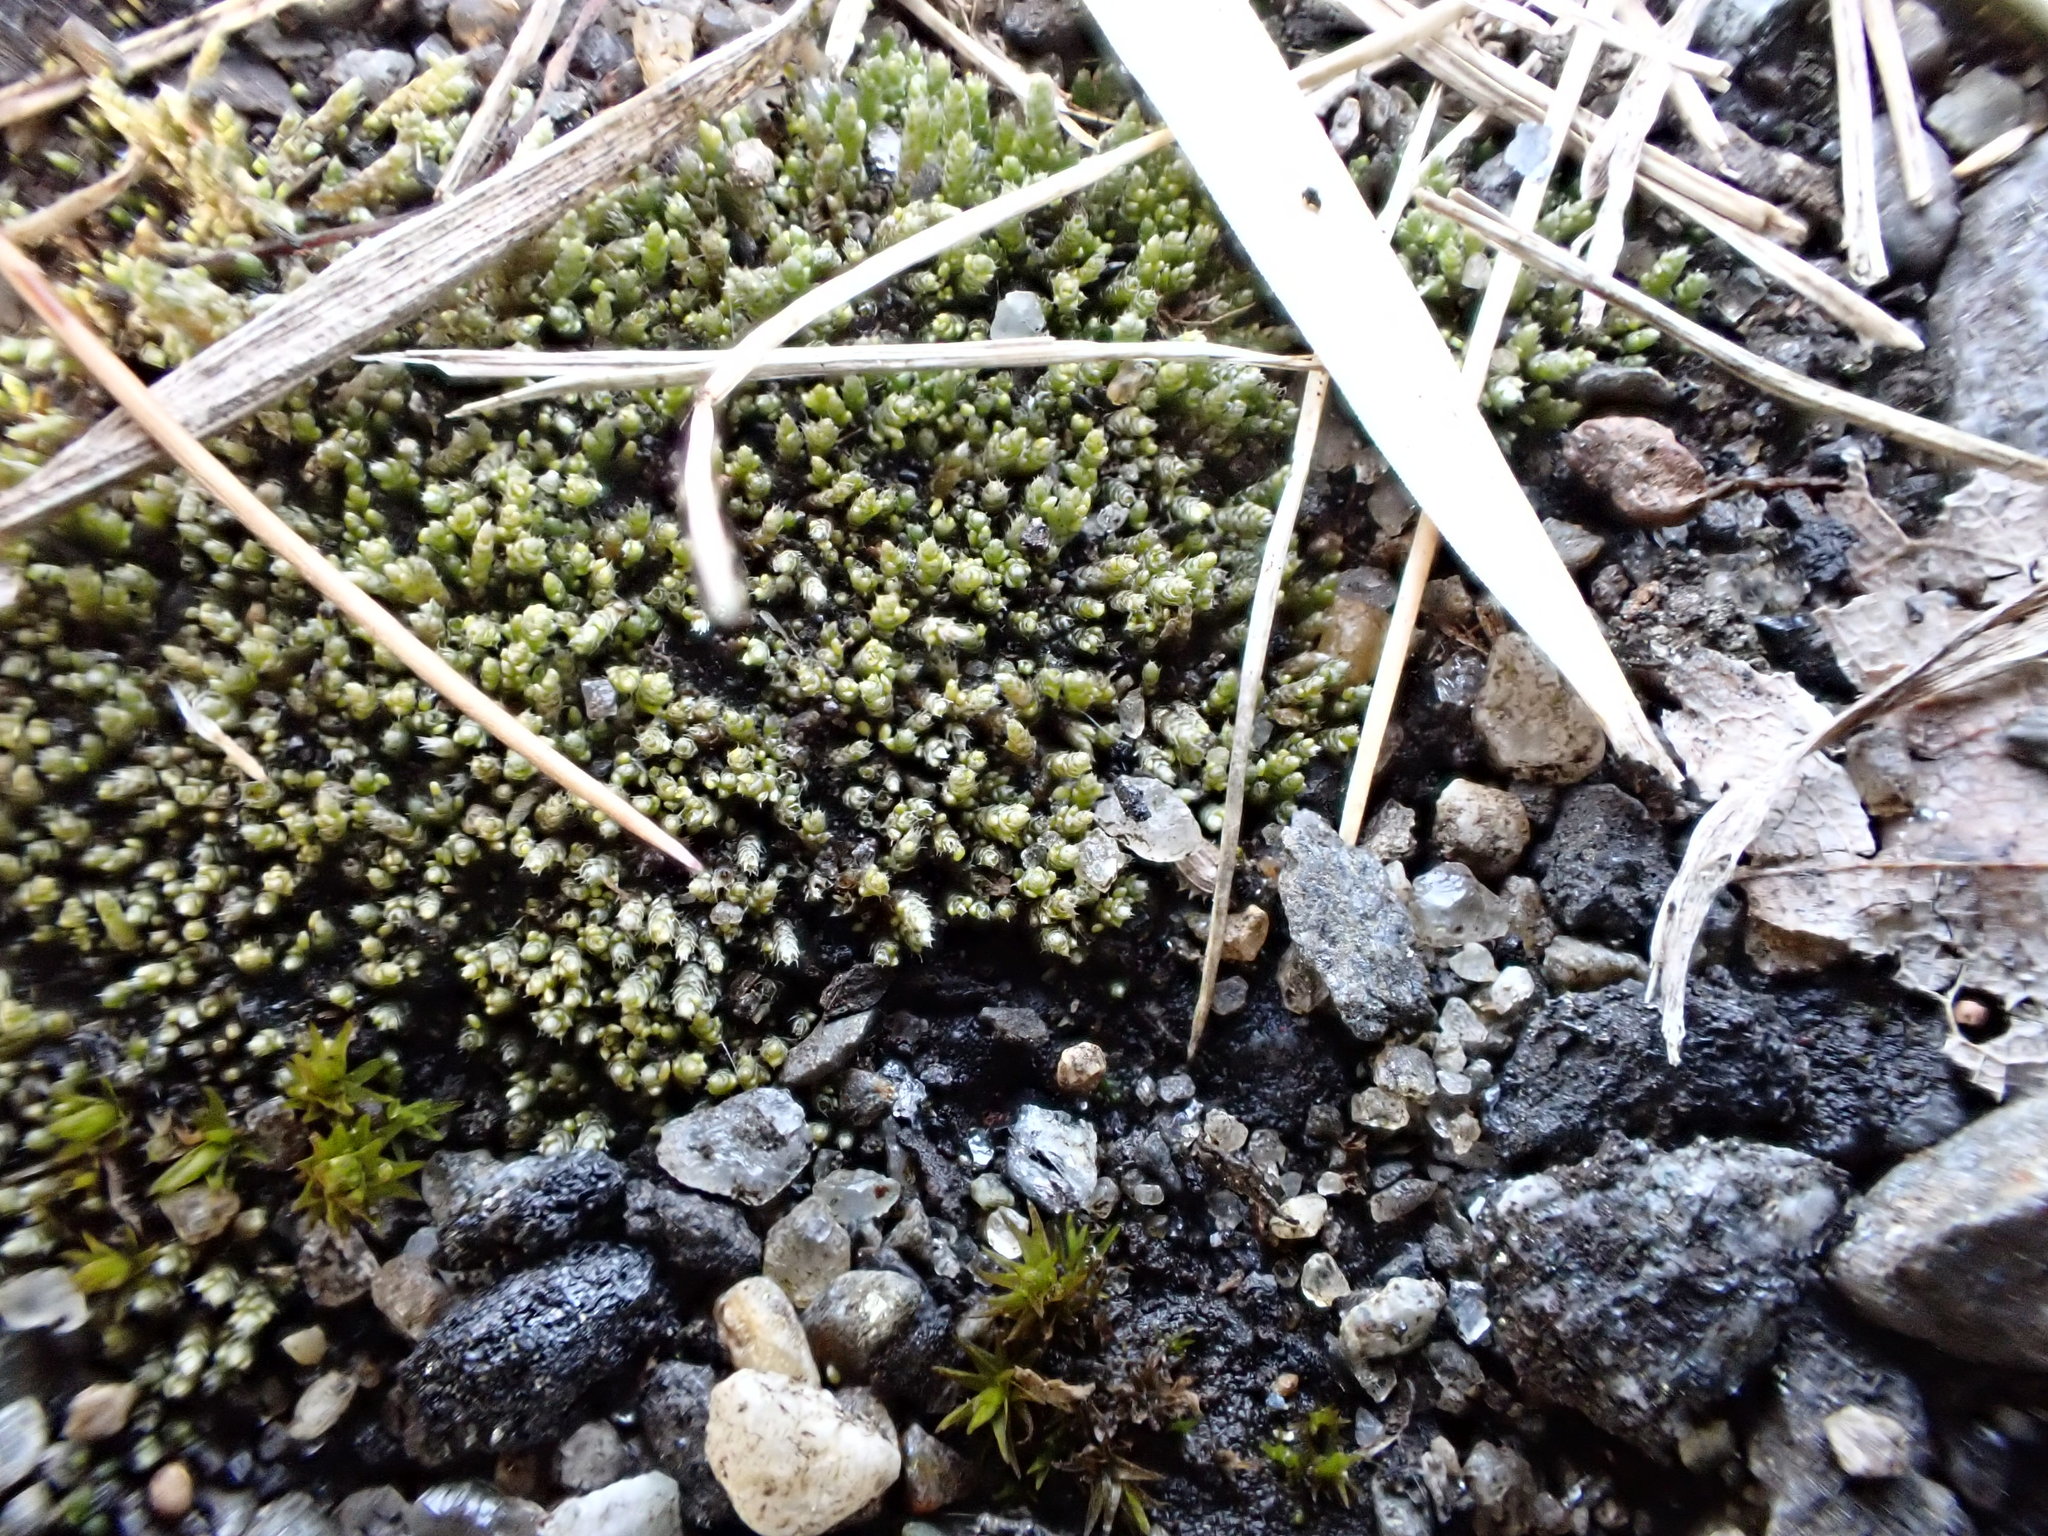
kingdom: Plantae
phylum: Bryophyta
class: Bryopsida
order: Bryales
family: Bryaceae
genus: Bryum
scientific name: Bryum argenteum
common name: Silver-moss
